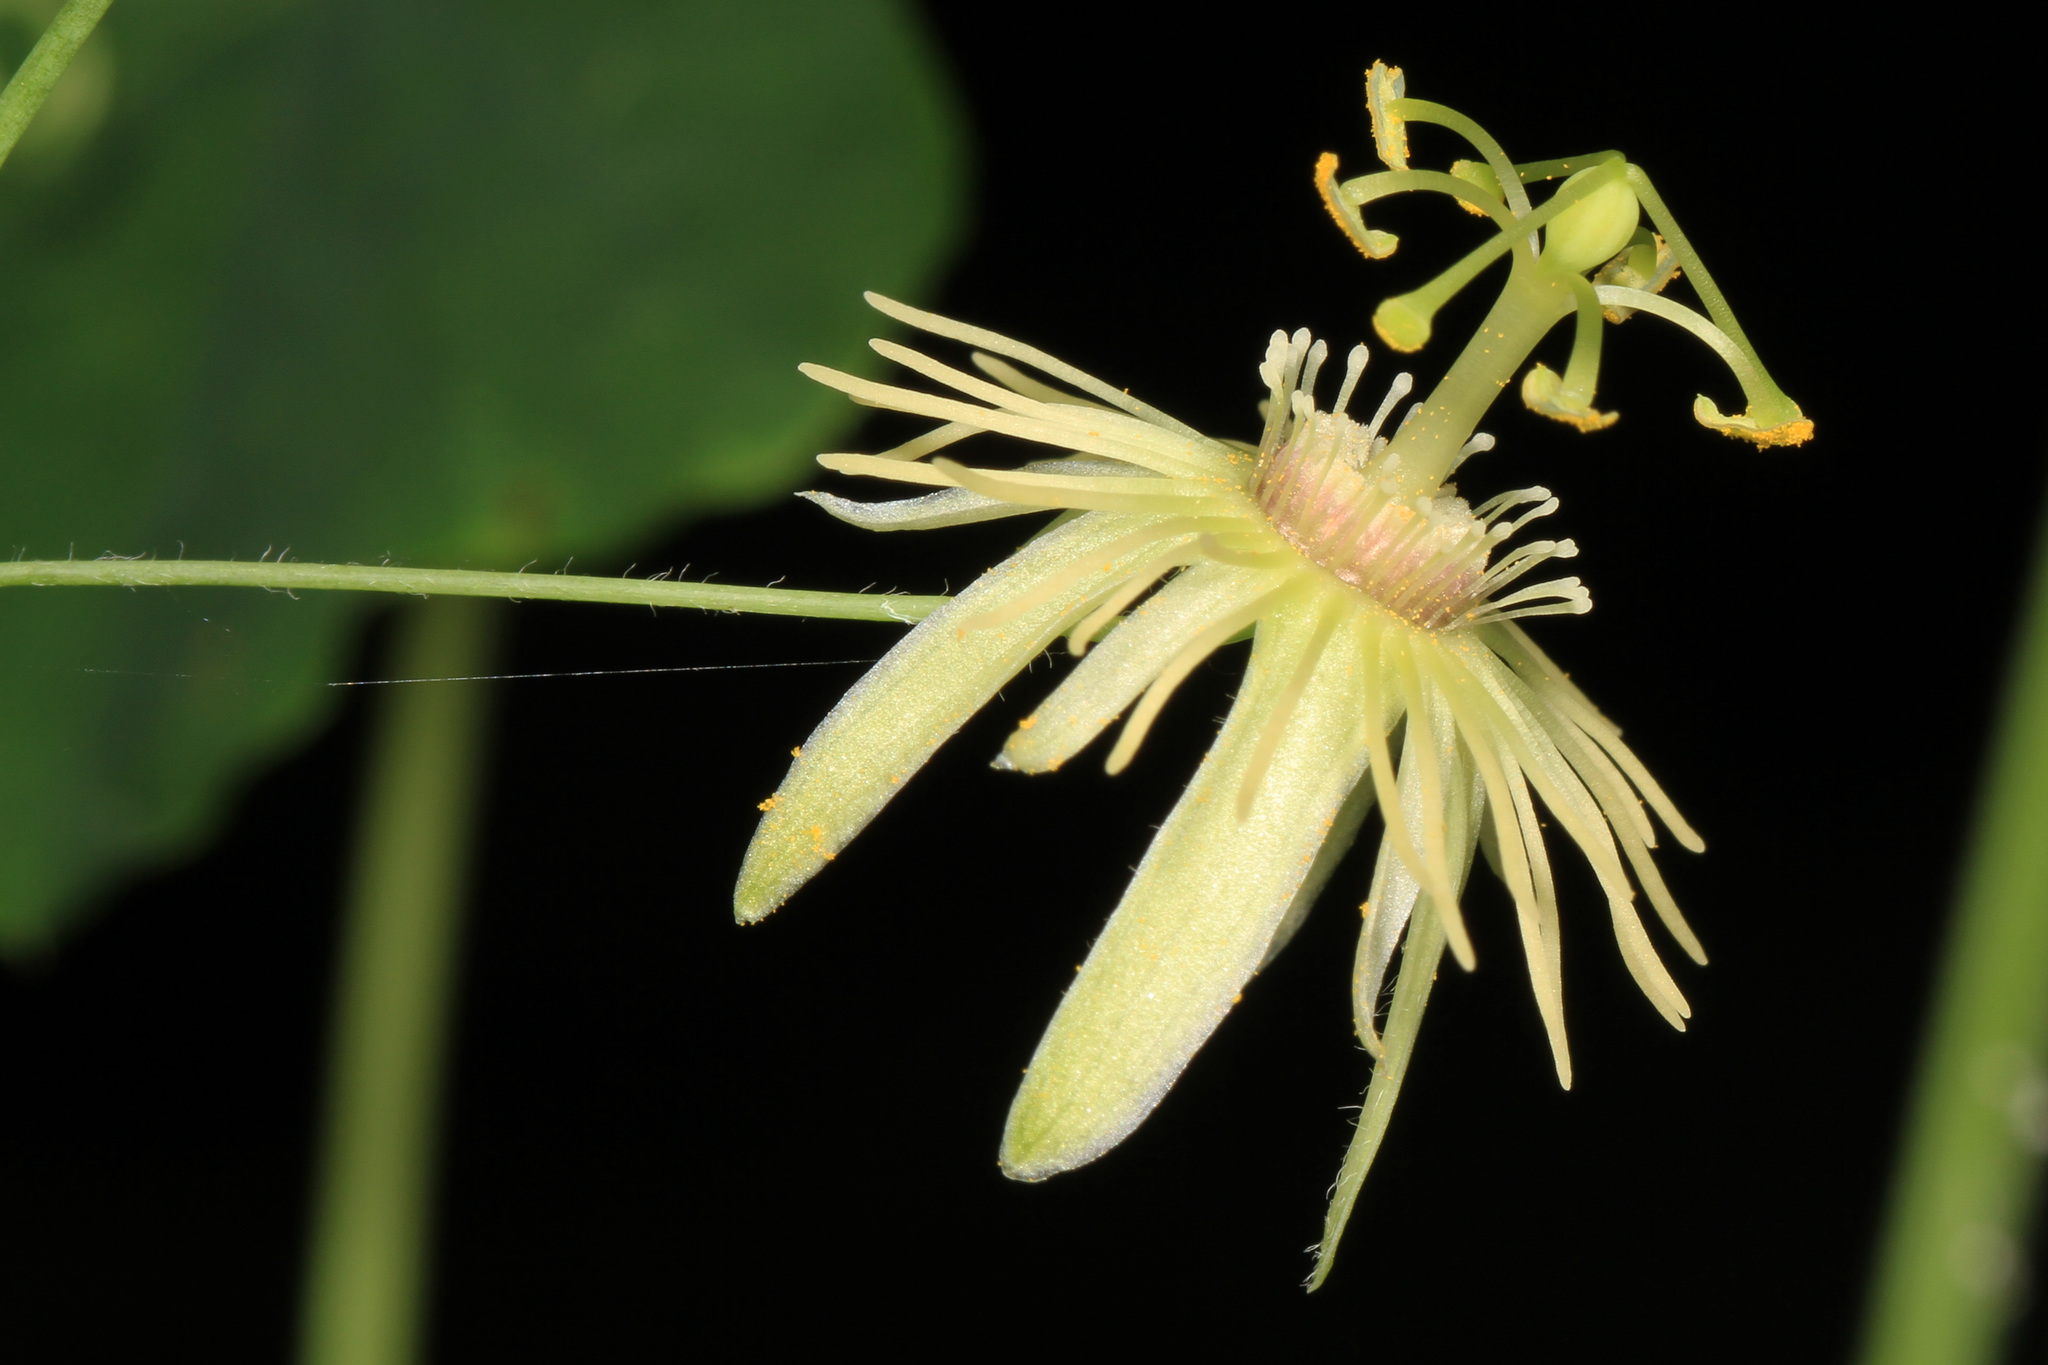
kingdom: Plantae
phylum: Tracheophyta
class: Magnoliopsida
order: Malpighiales
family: Passifloraceae
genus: Passiflora
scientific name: Passiflora lutea
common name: Yellow passionflower
